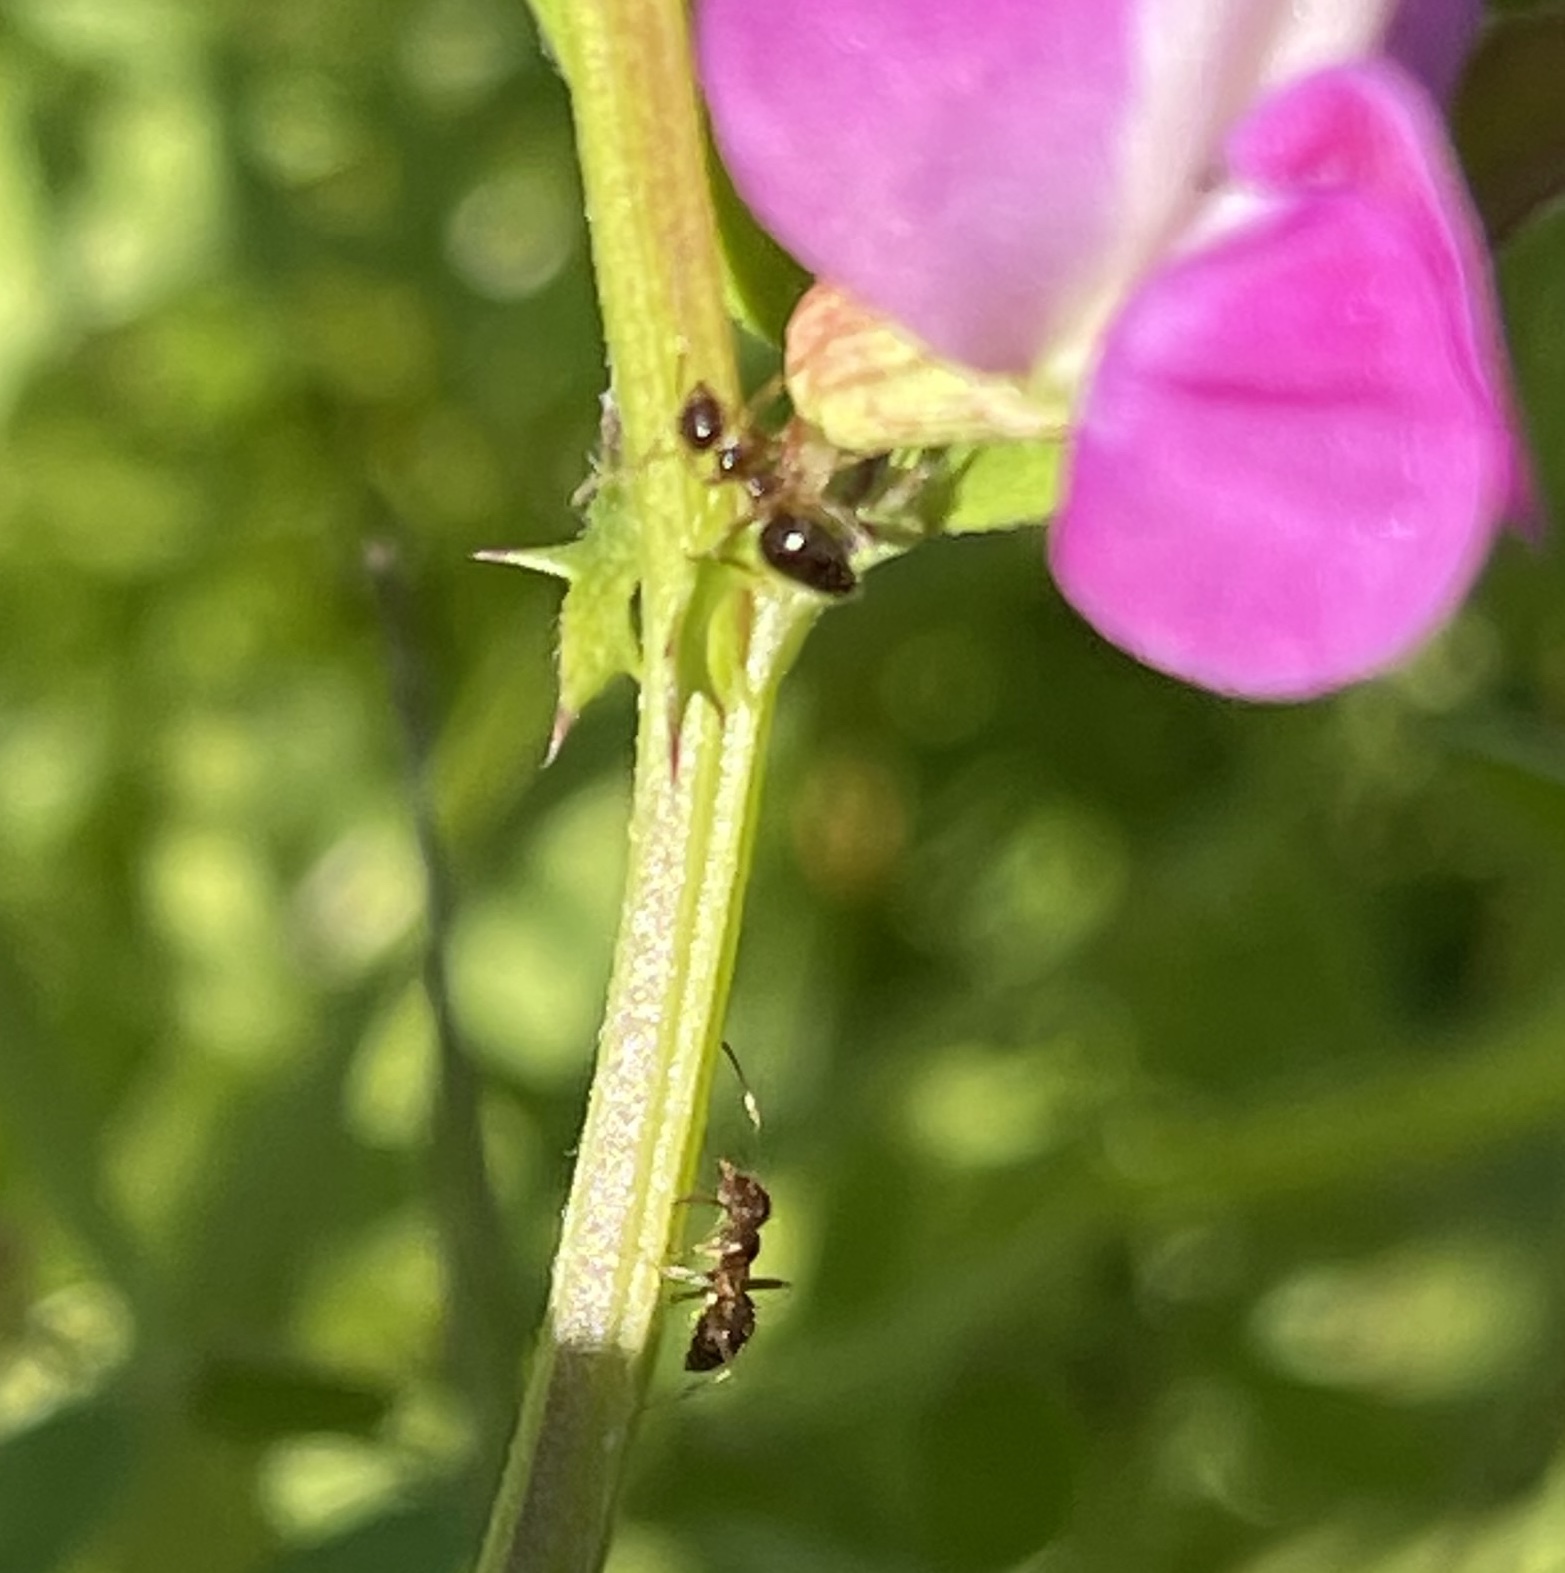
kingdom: Animalia
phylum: Arthropoda
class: Insecta
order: Hymenoptera
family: Formicidae
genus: Prenolepis
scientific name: Prenolepis imparis
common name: Small honey ant
